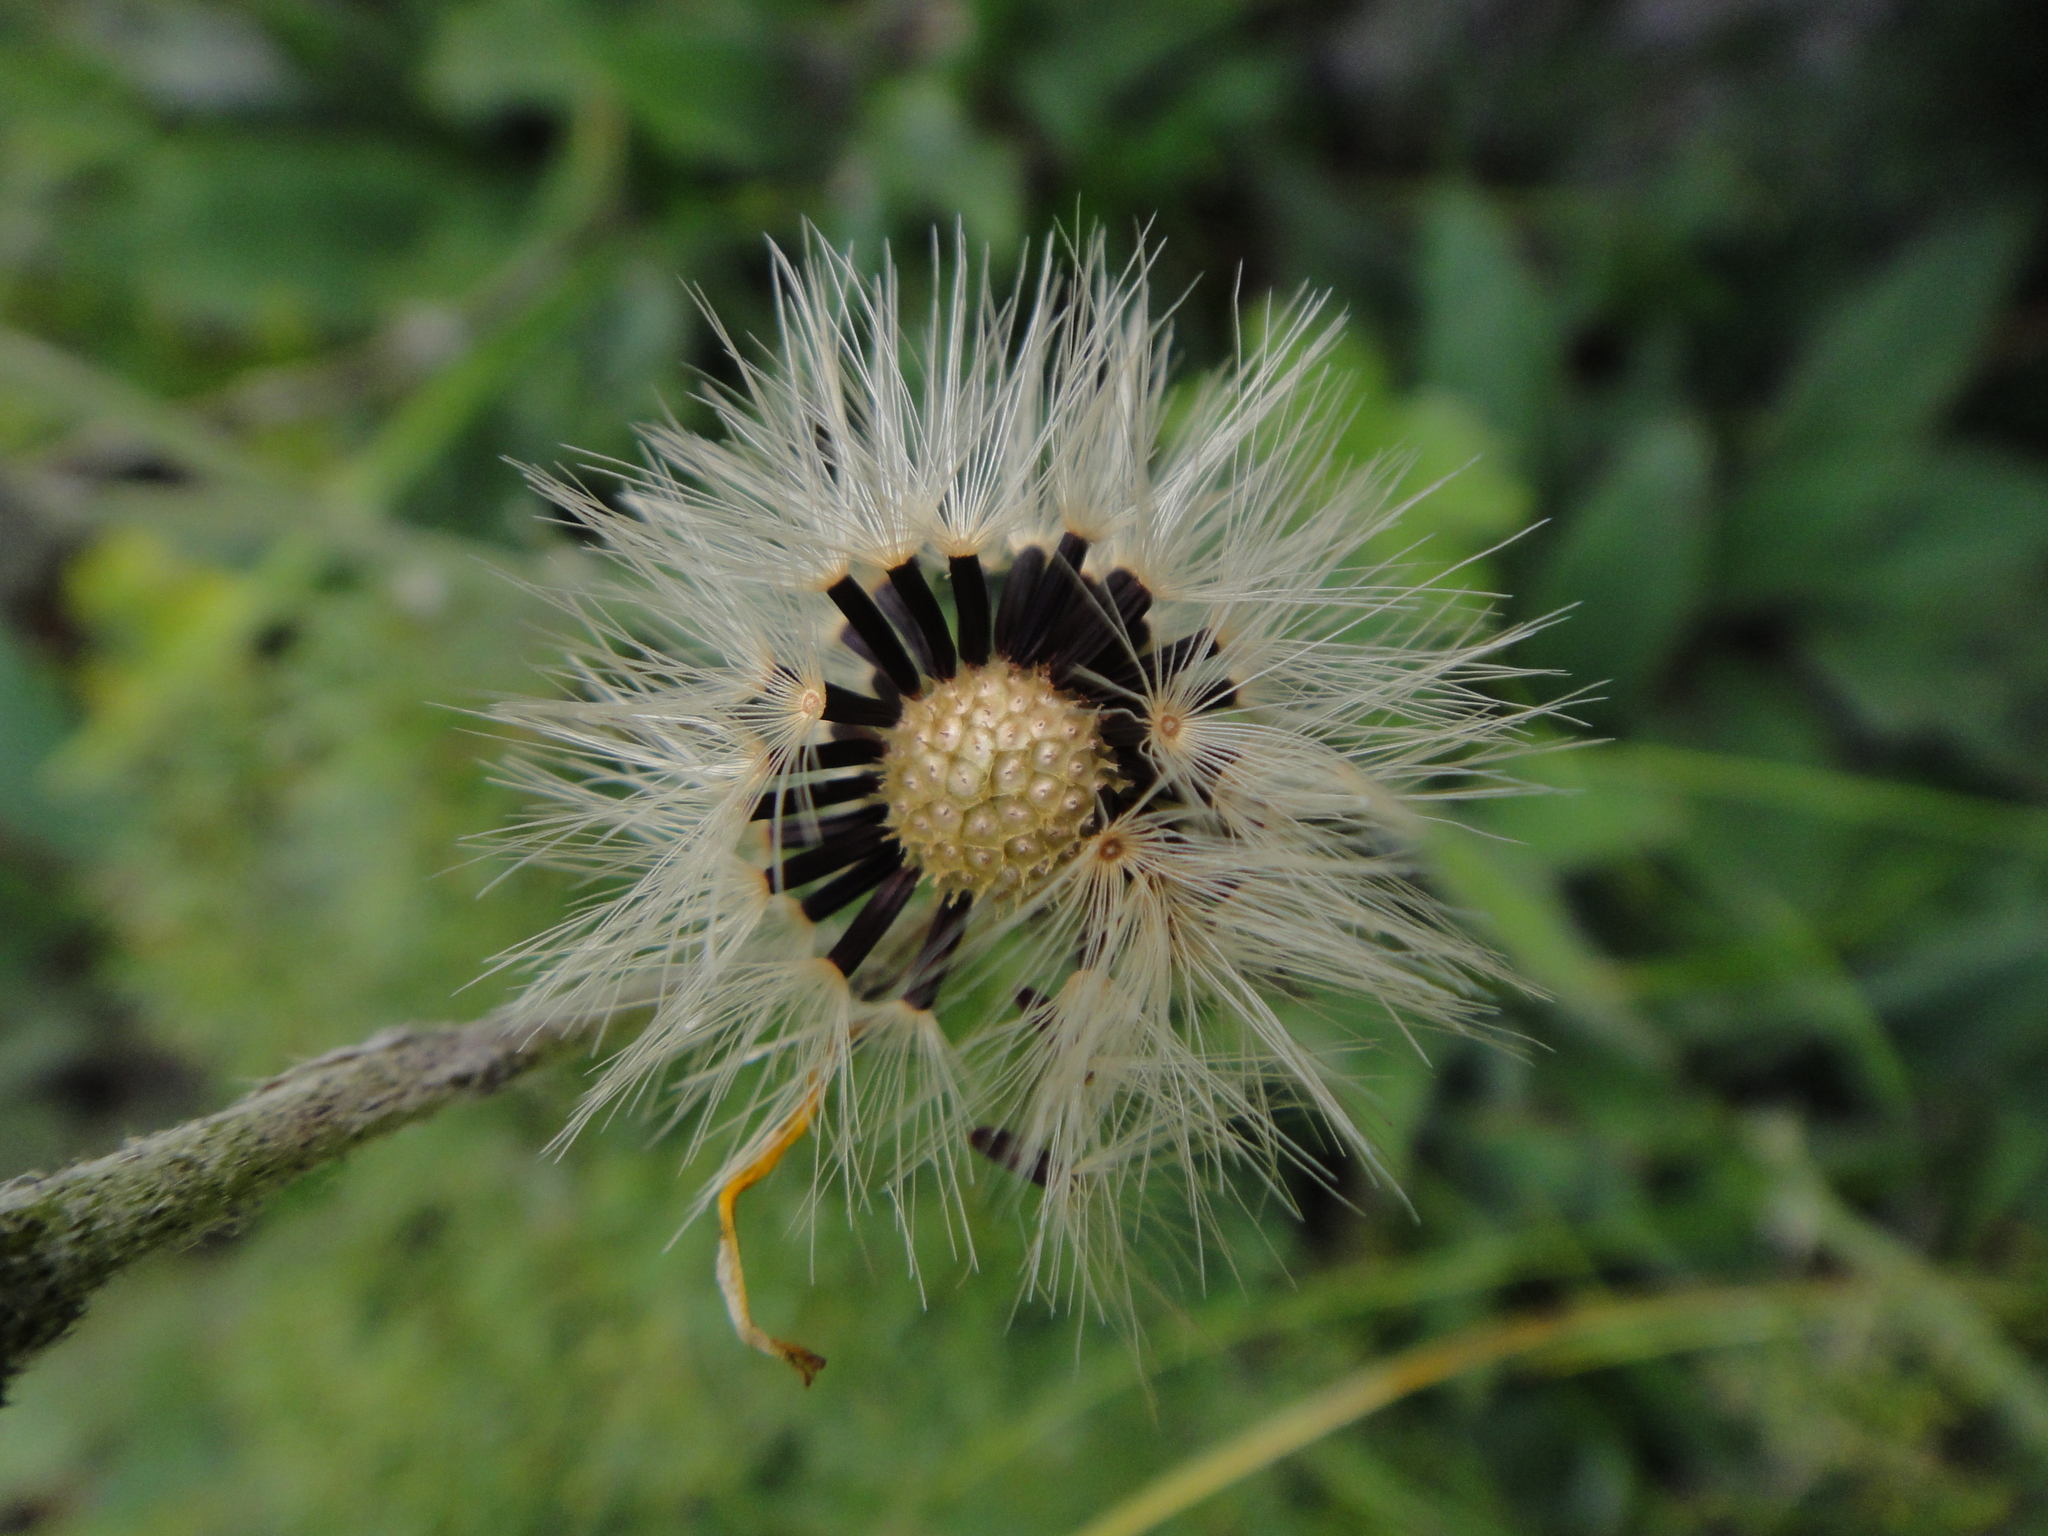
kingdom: Plantae
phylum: Tracheophyta
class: Magnoliopsida
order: Asterales
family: Asteraceae
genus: Hieracium
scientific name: Hieracium arolae
